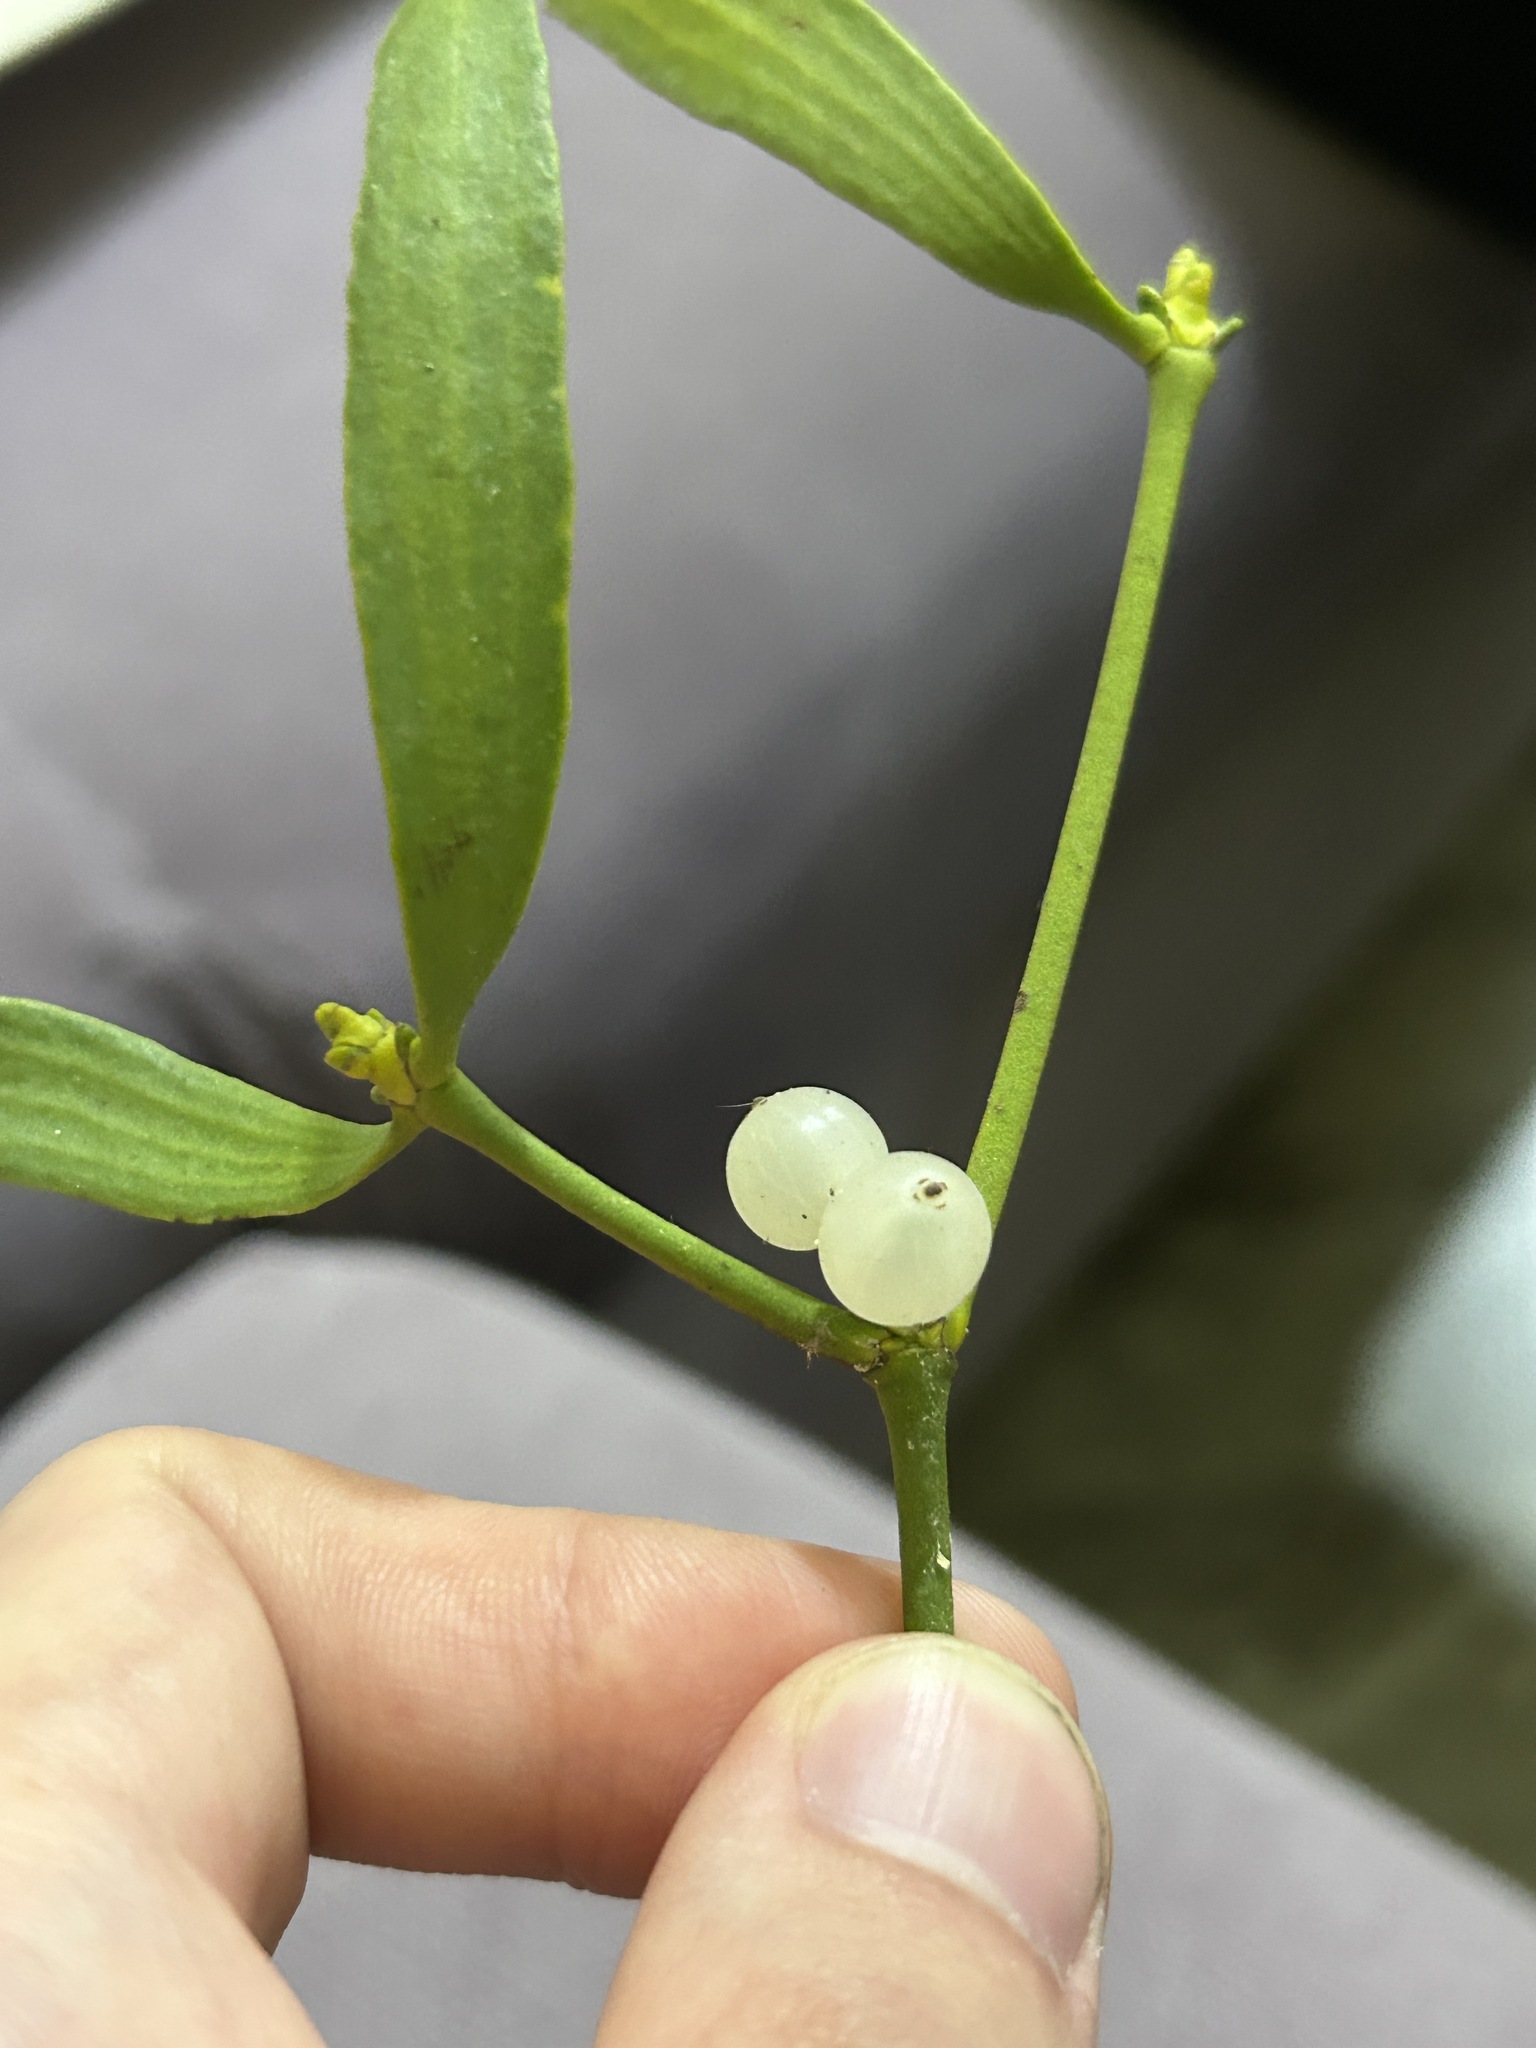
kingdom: Plantae
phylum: Tracheophyta
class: Magnoliopsida
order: Santalales
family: Viscaceae
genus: Viscum
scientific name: Viscum album
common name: Mistletoe
